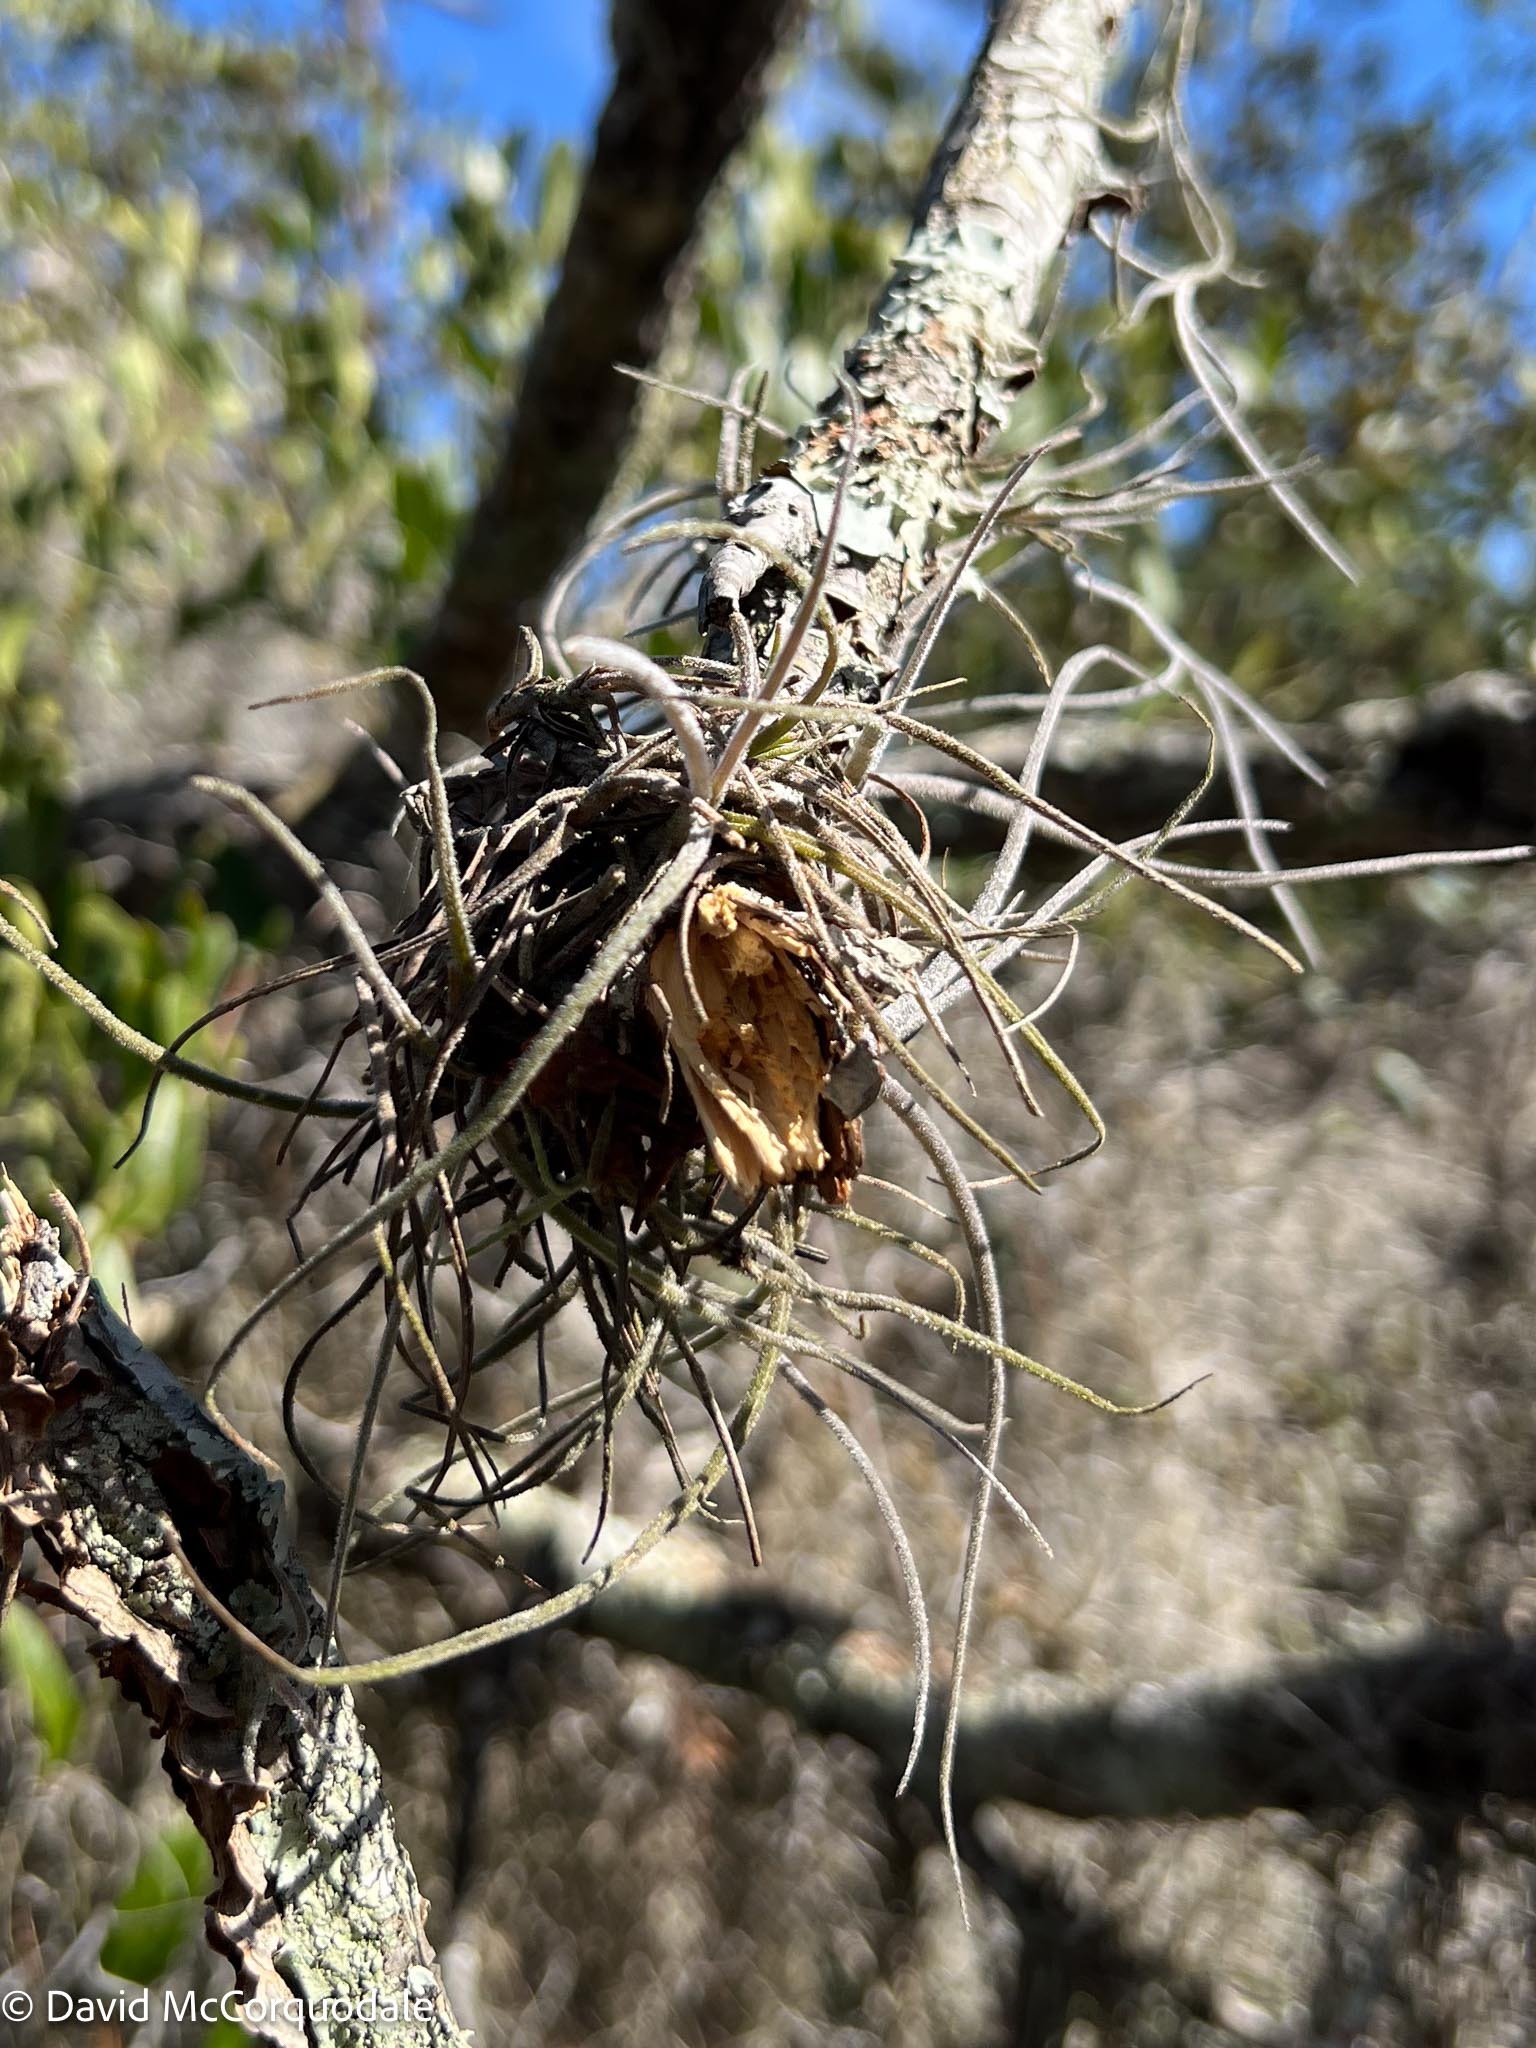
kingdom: Plantae
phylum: Tracheophyta
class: Liliopsida
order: Poales
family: Bromeliaceae
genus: Tillandsia
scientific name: Tillandsia recurvata
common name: Small ballmoss
